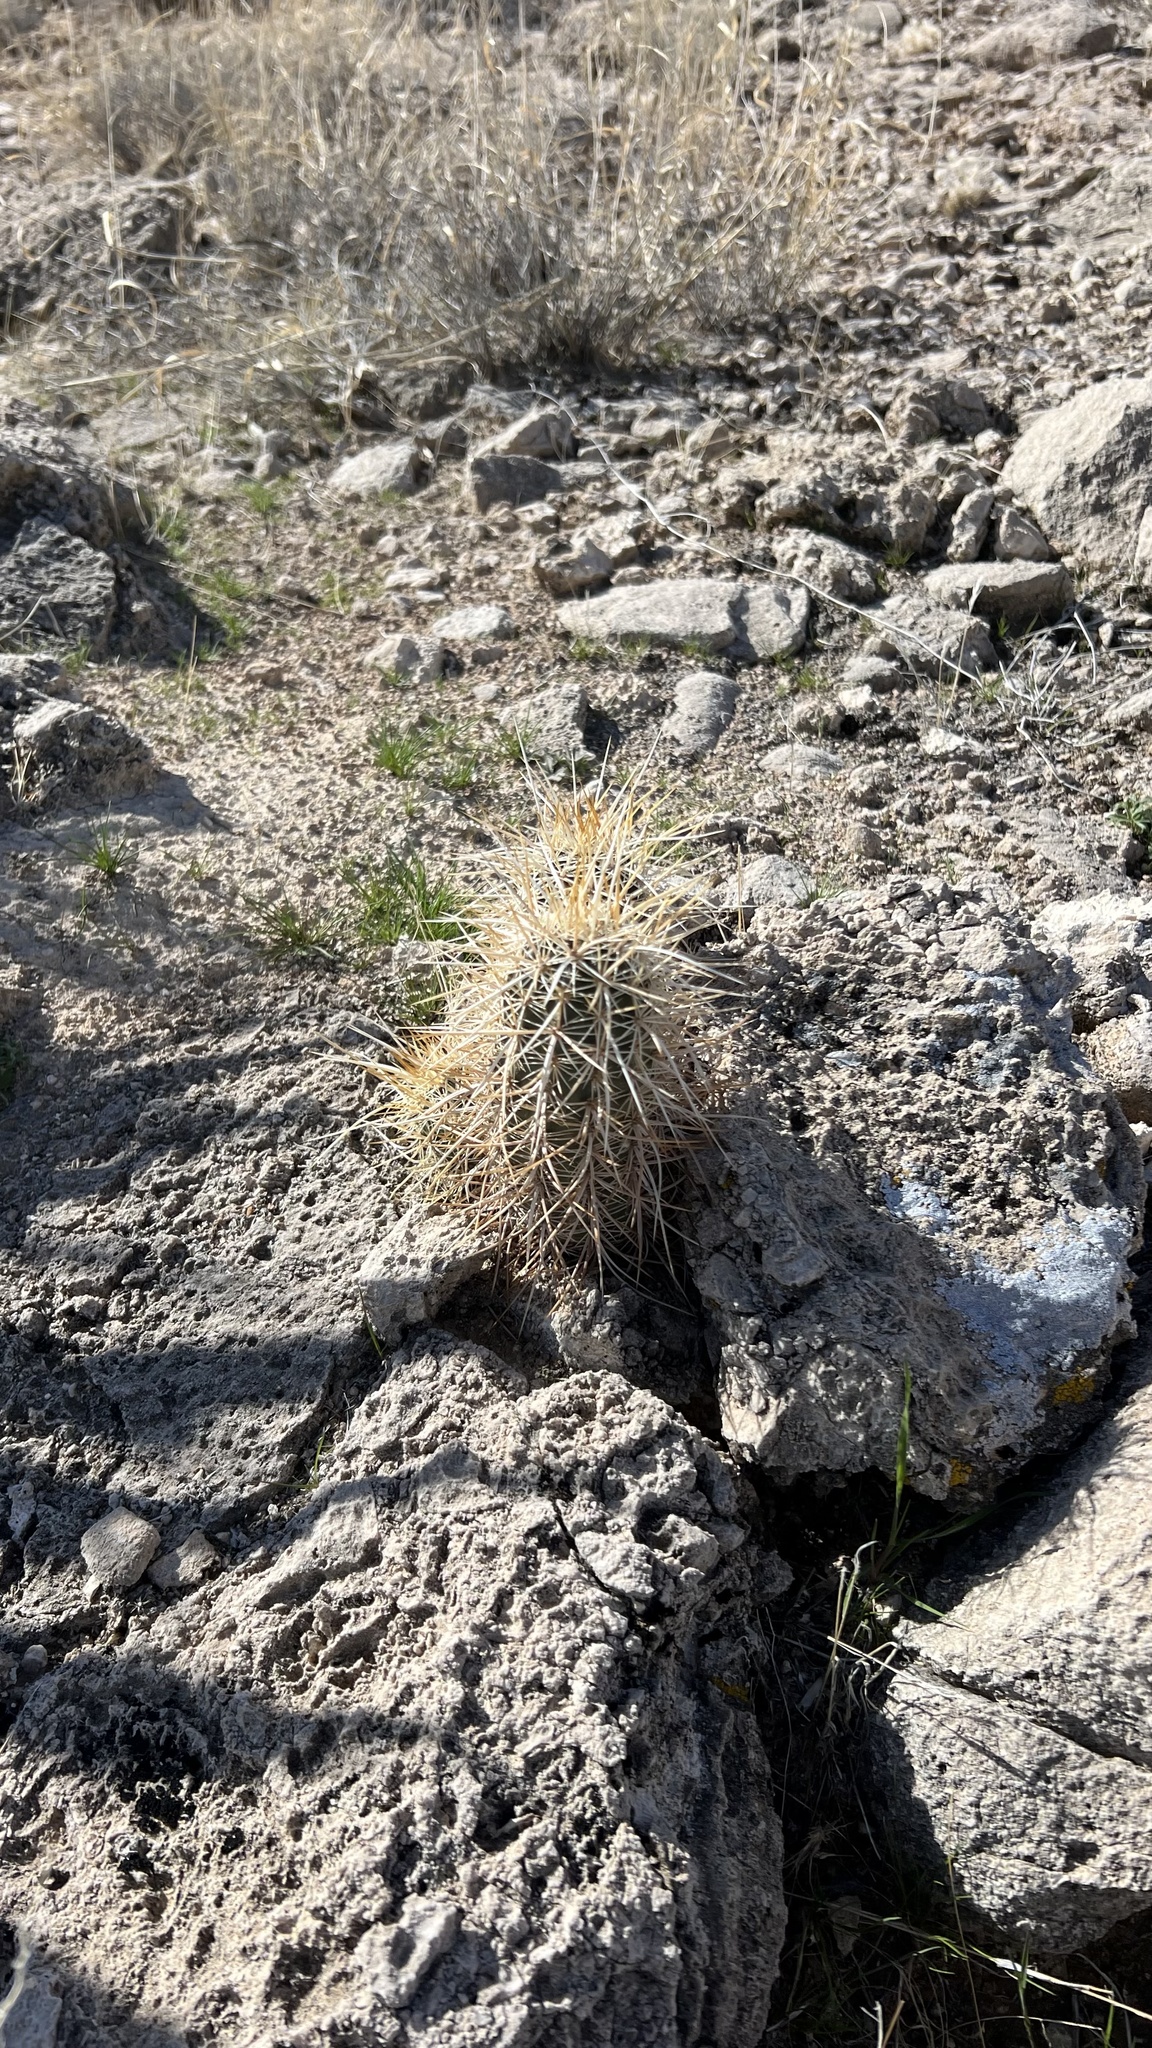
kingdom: Plantae
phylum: Tracheophyta
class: Magnoliopsida
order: Caryophyllales
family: Cactaceae
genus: Echinocereus
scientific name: Echinocereus engelmannii
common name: Engelmann's hedgehog cactus
